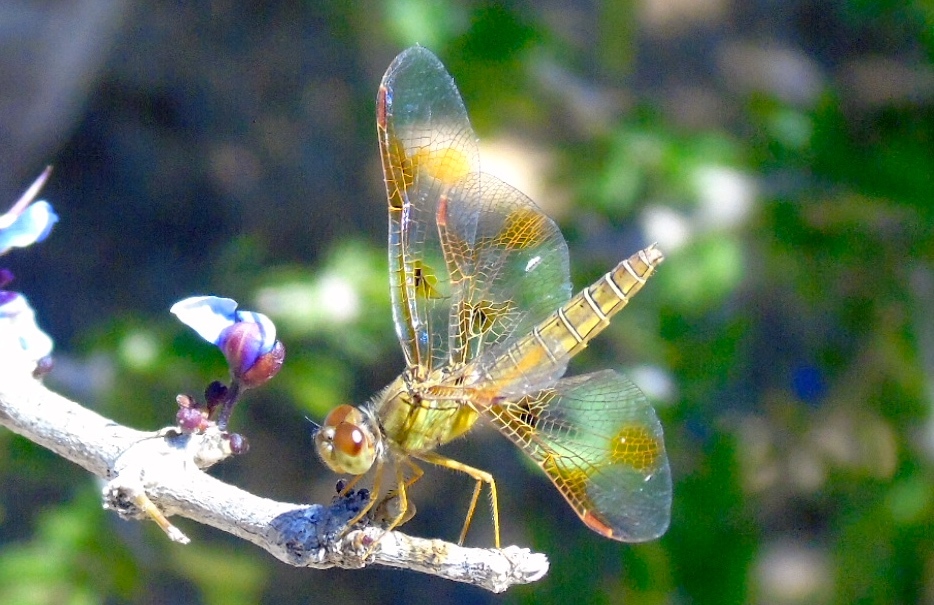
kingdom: Animalia
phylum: Arthropoda
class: Insecta
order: Odonata
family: Libellulidae
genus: Perithemis
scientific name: Perithemis
